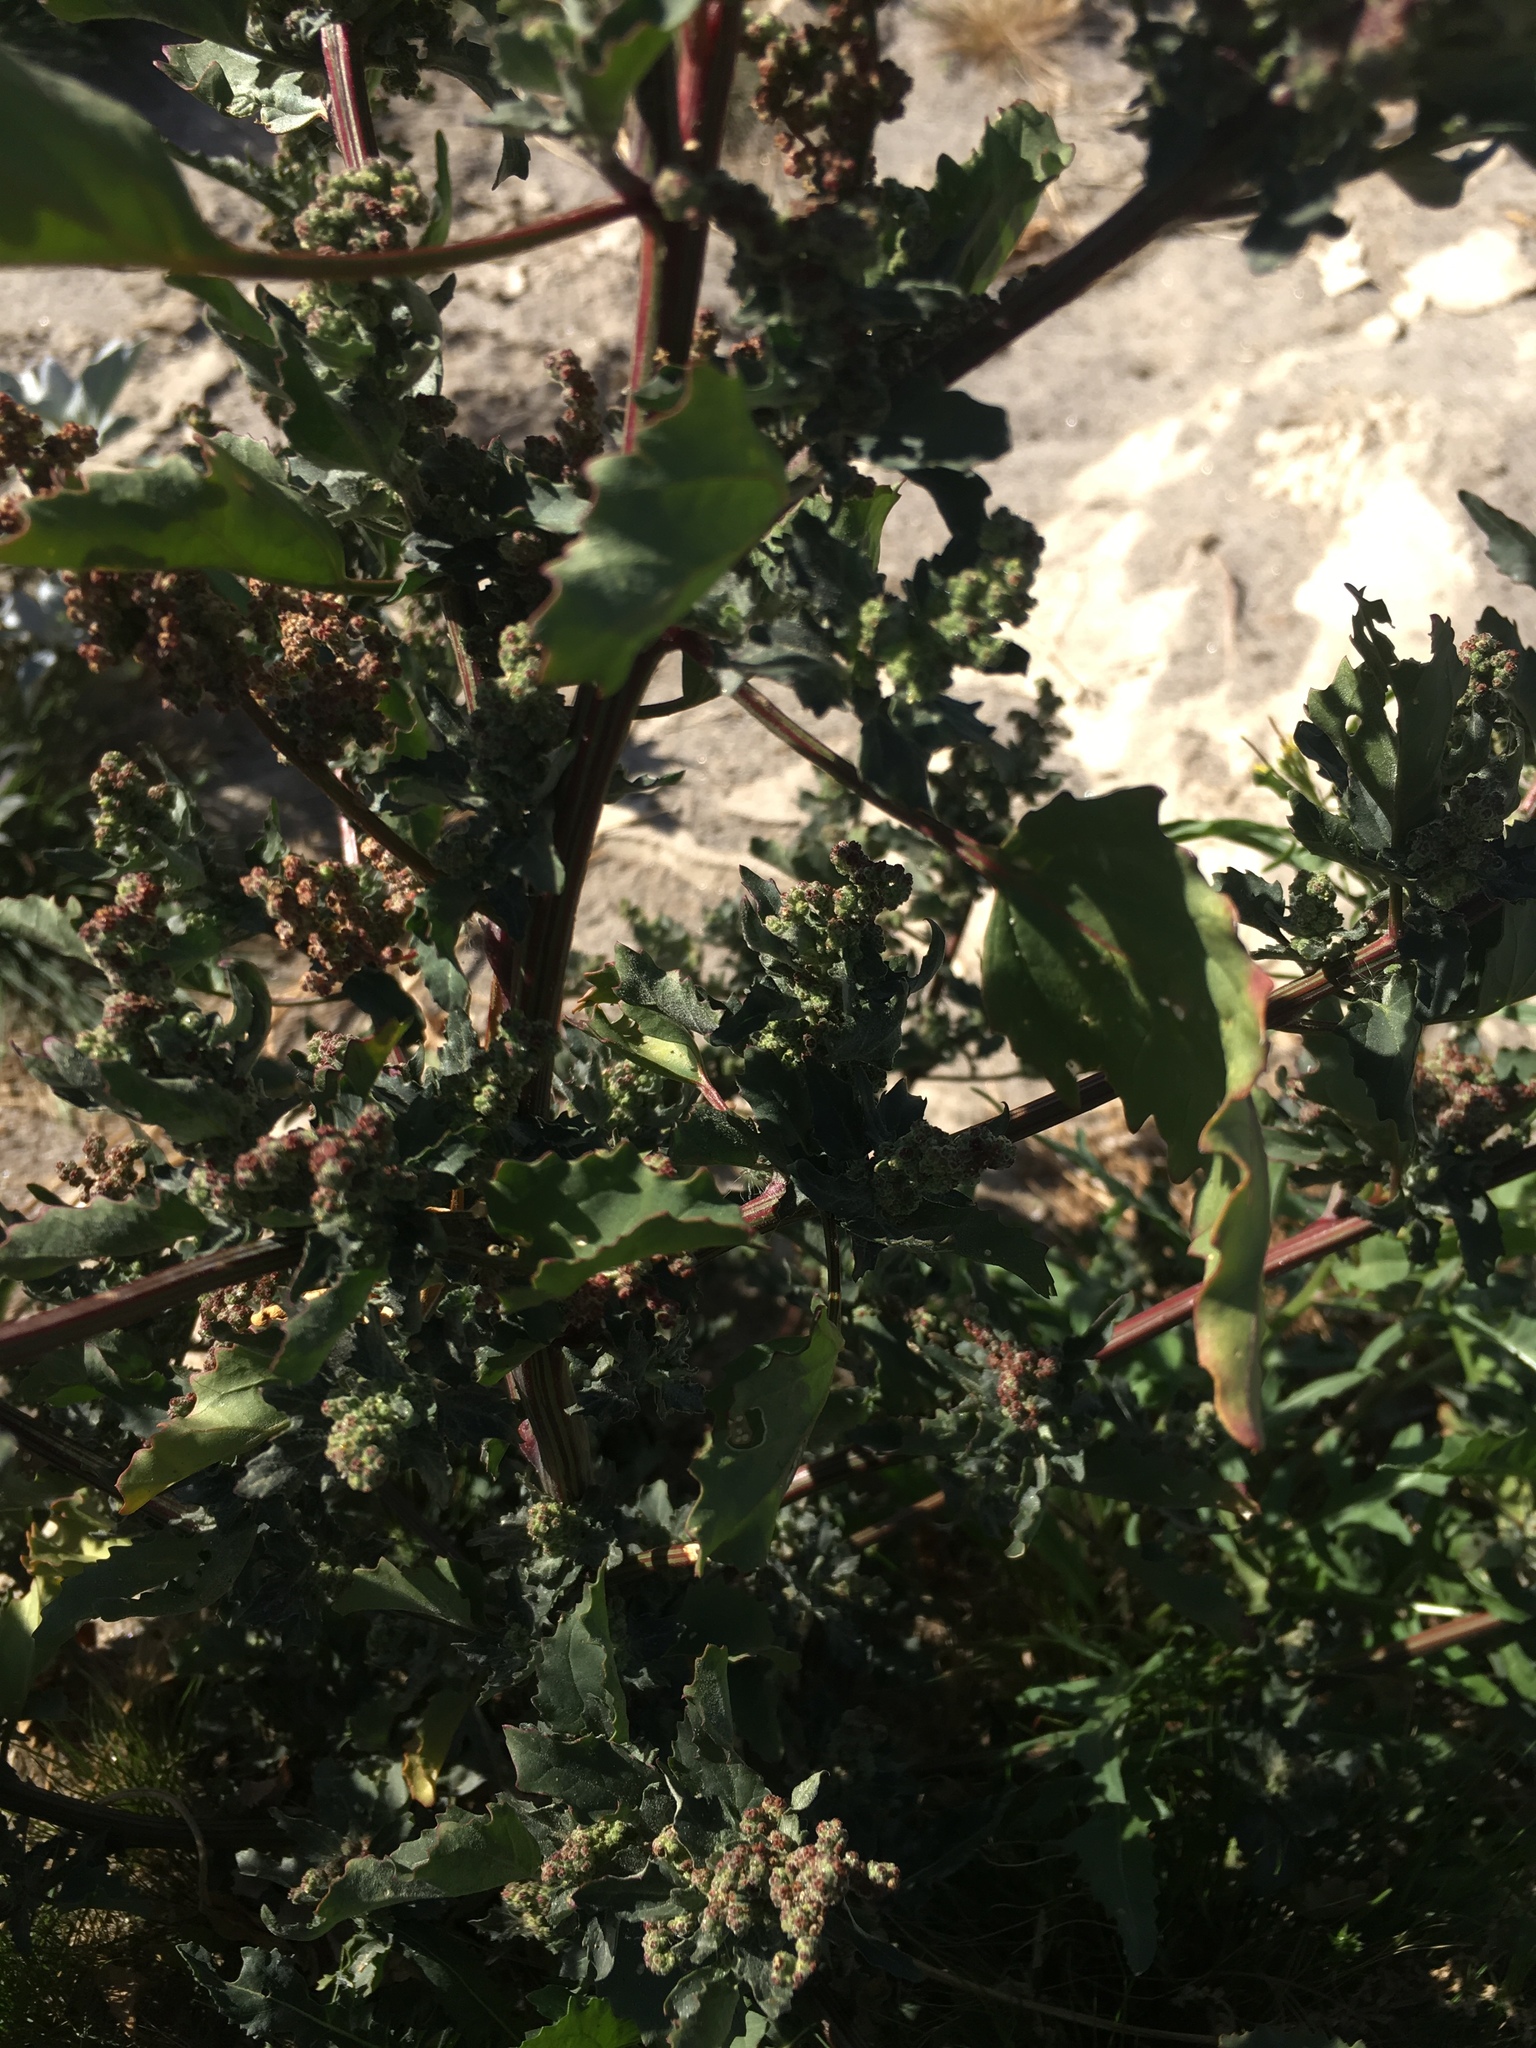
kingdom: Plantae
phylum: Tracheophyta
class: Magnoliopsida
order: Caryophyllales
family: Amaranthaceae
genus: Chenopodiastrum
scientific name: Chenopodiastrum murale
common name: Sowbane
